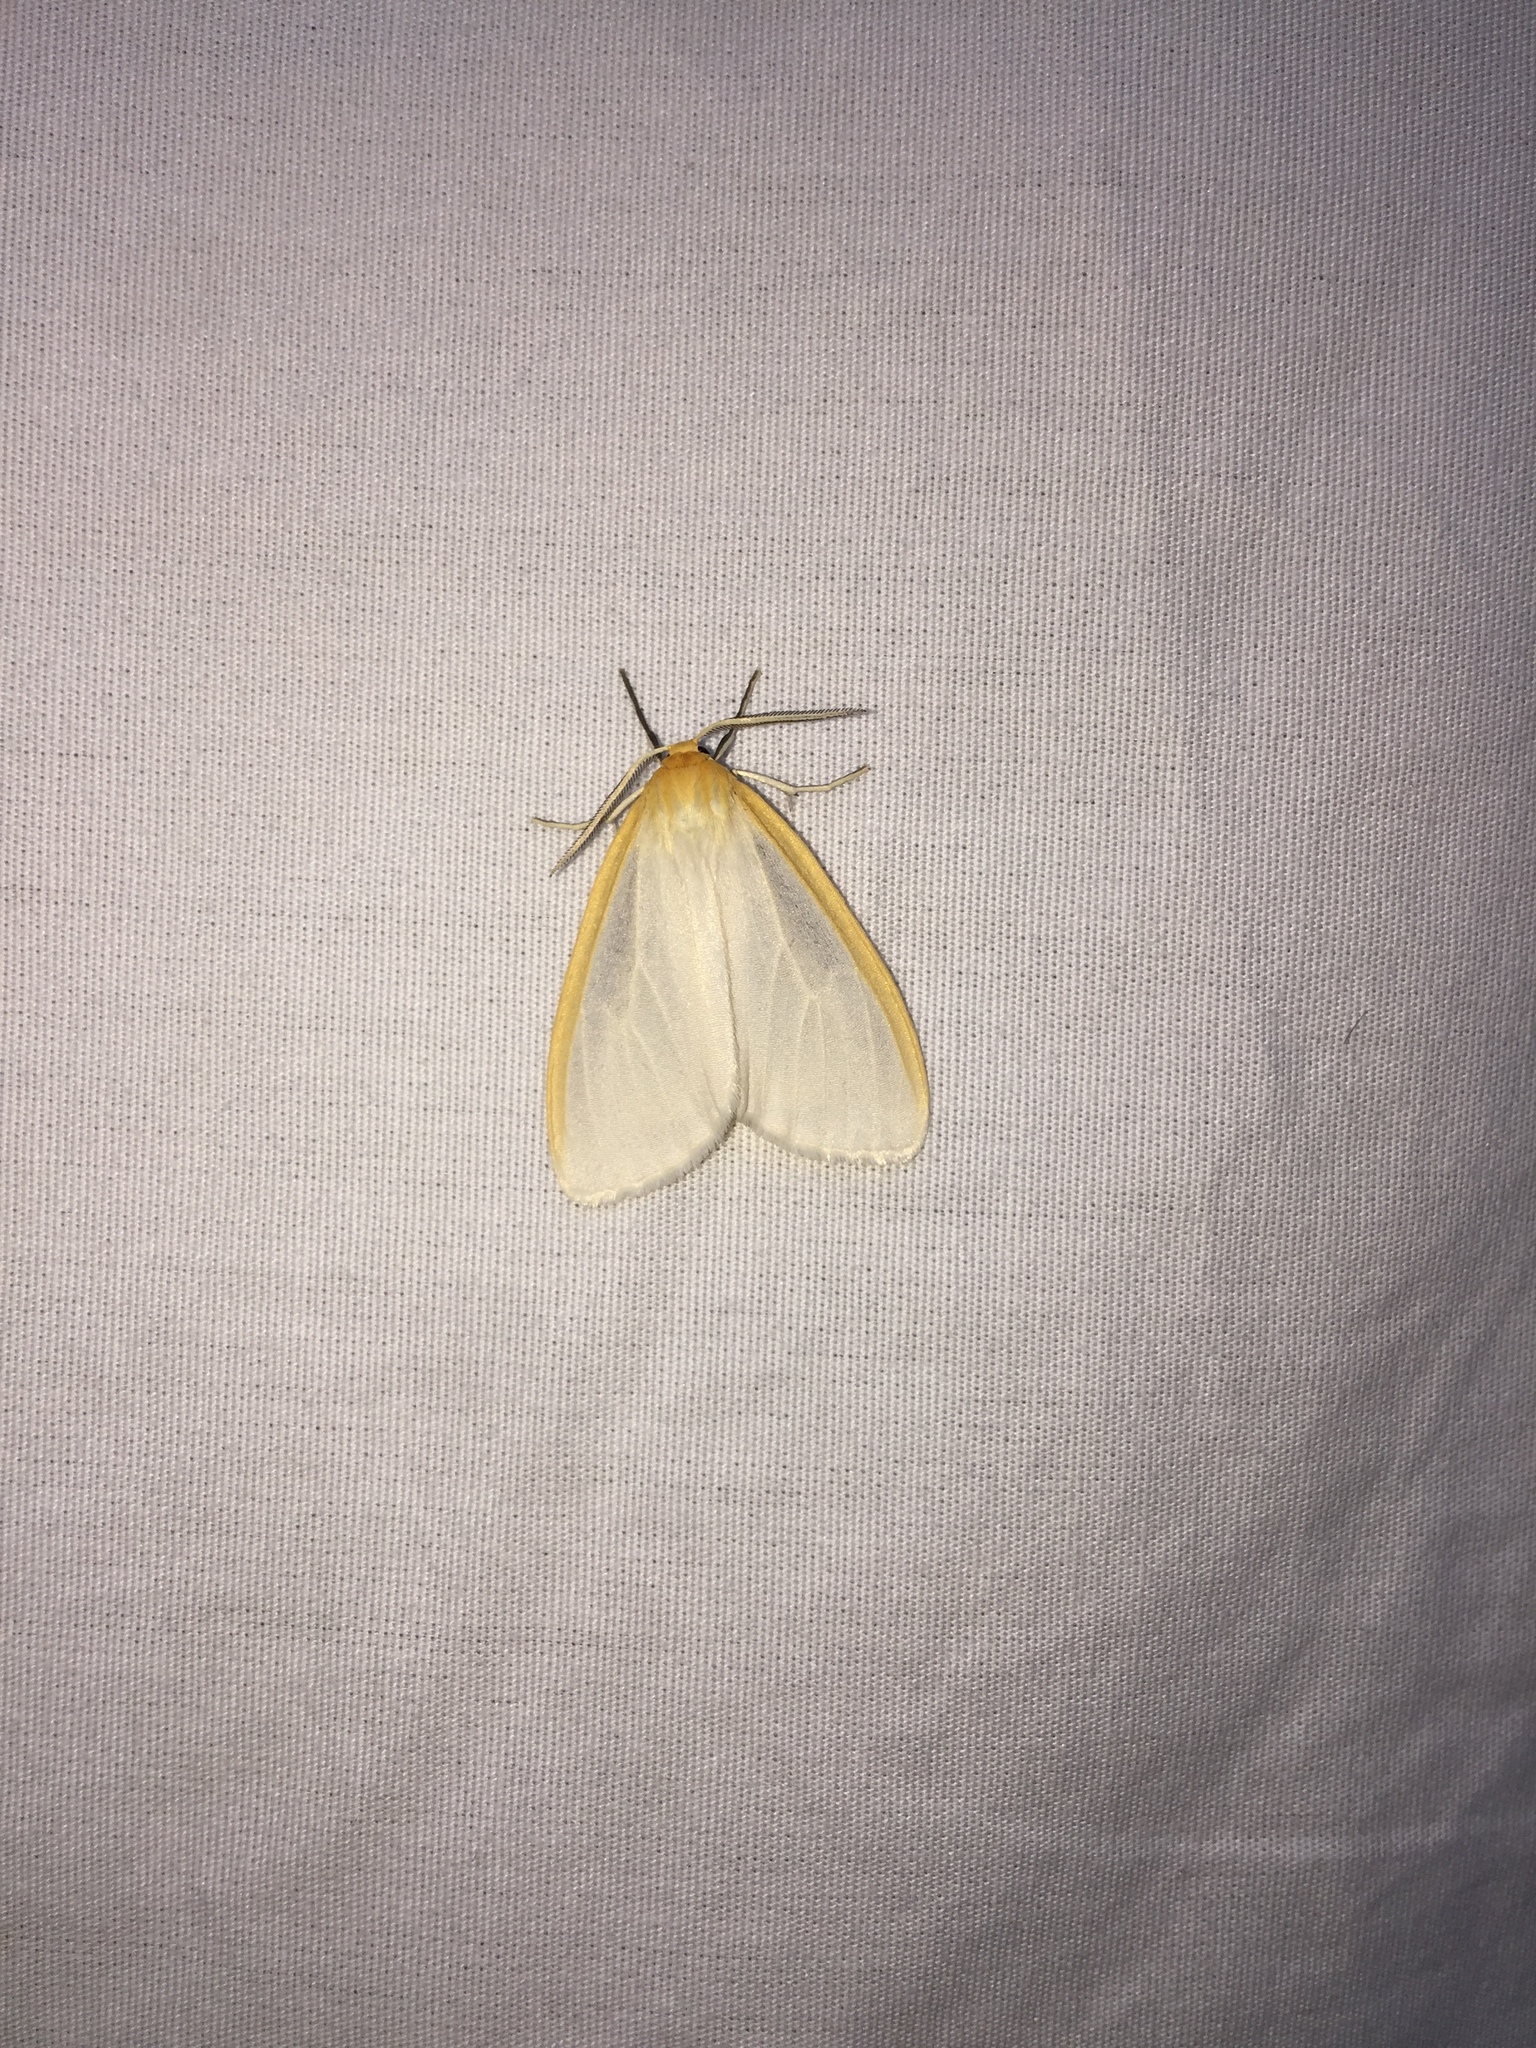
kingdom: Animalia
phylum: Arthropoda
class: Insecta
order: Lepidoptera
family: Erebidae
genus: Cycnia
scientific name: Cycnia tenera
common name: Delicate cycnia moth
